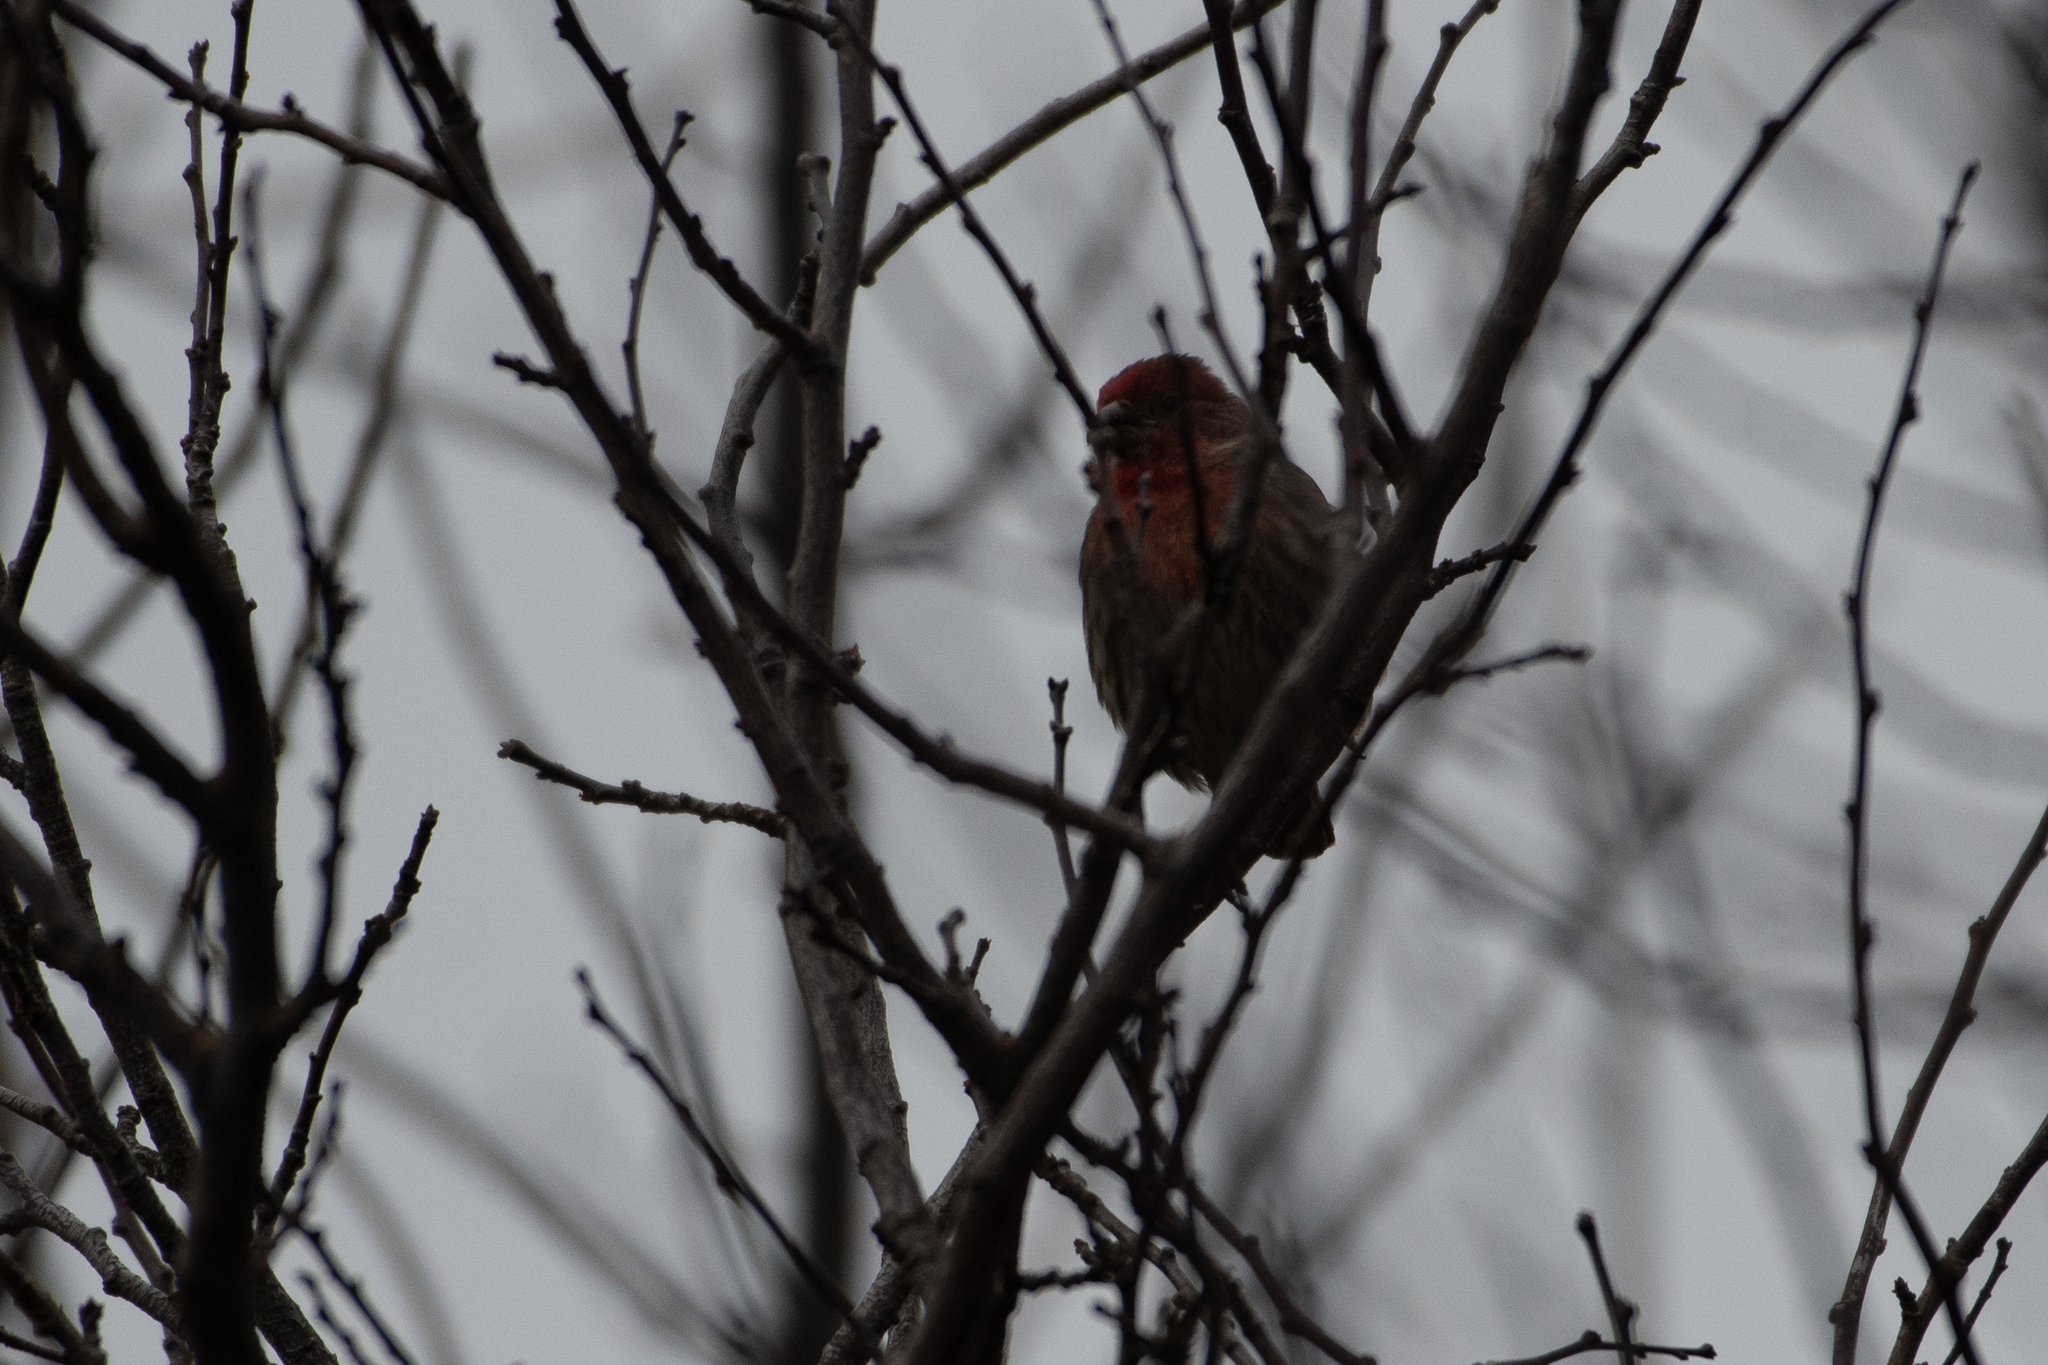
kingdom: Animalia
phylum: Chordata
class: Aves
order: Passeriformes
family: Fringillidae
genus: Haemorhous
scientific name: Haemorhous mexicanus
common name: House finch
